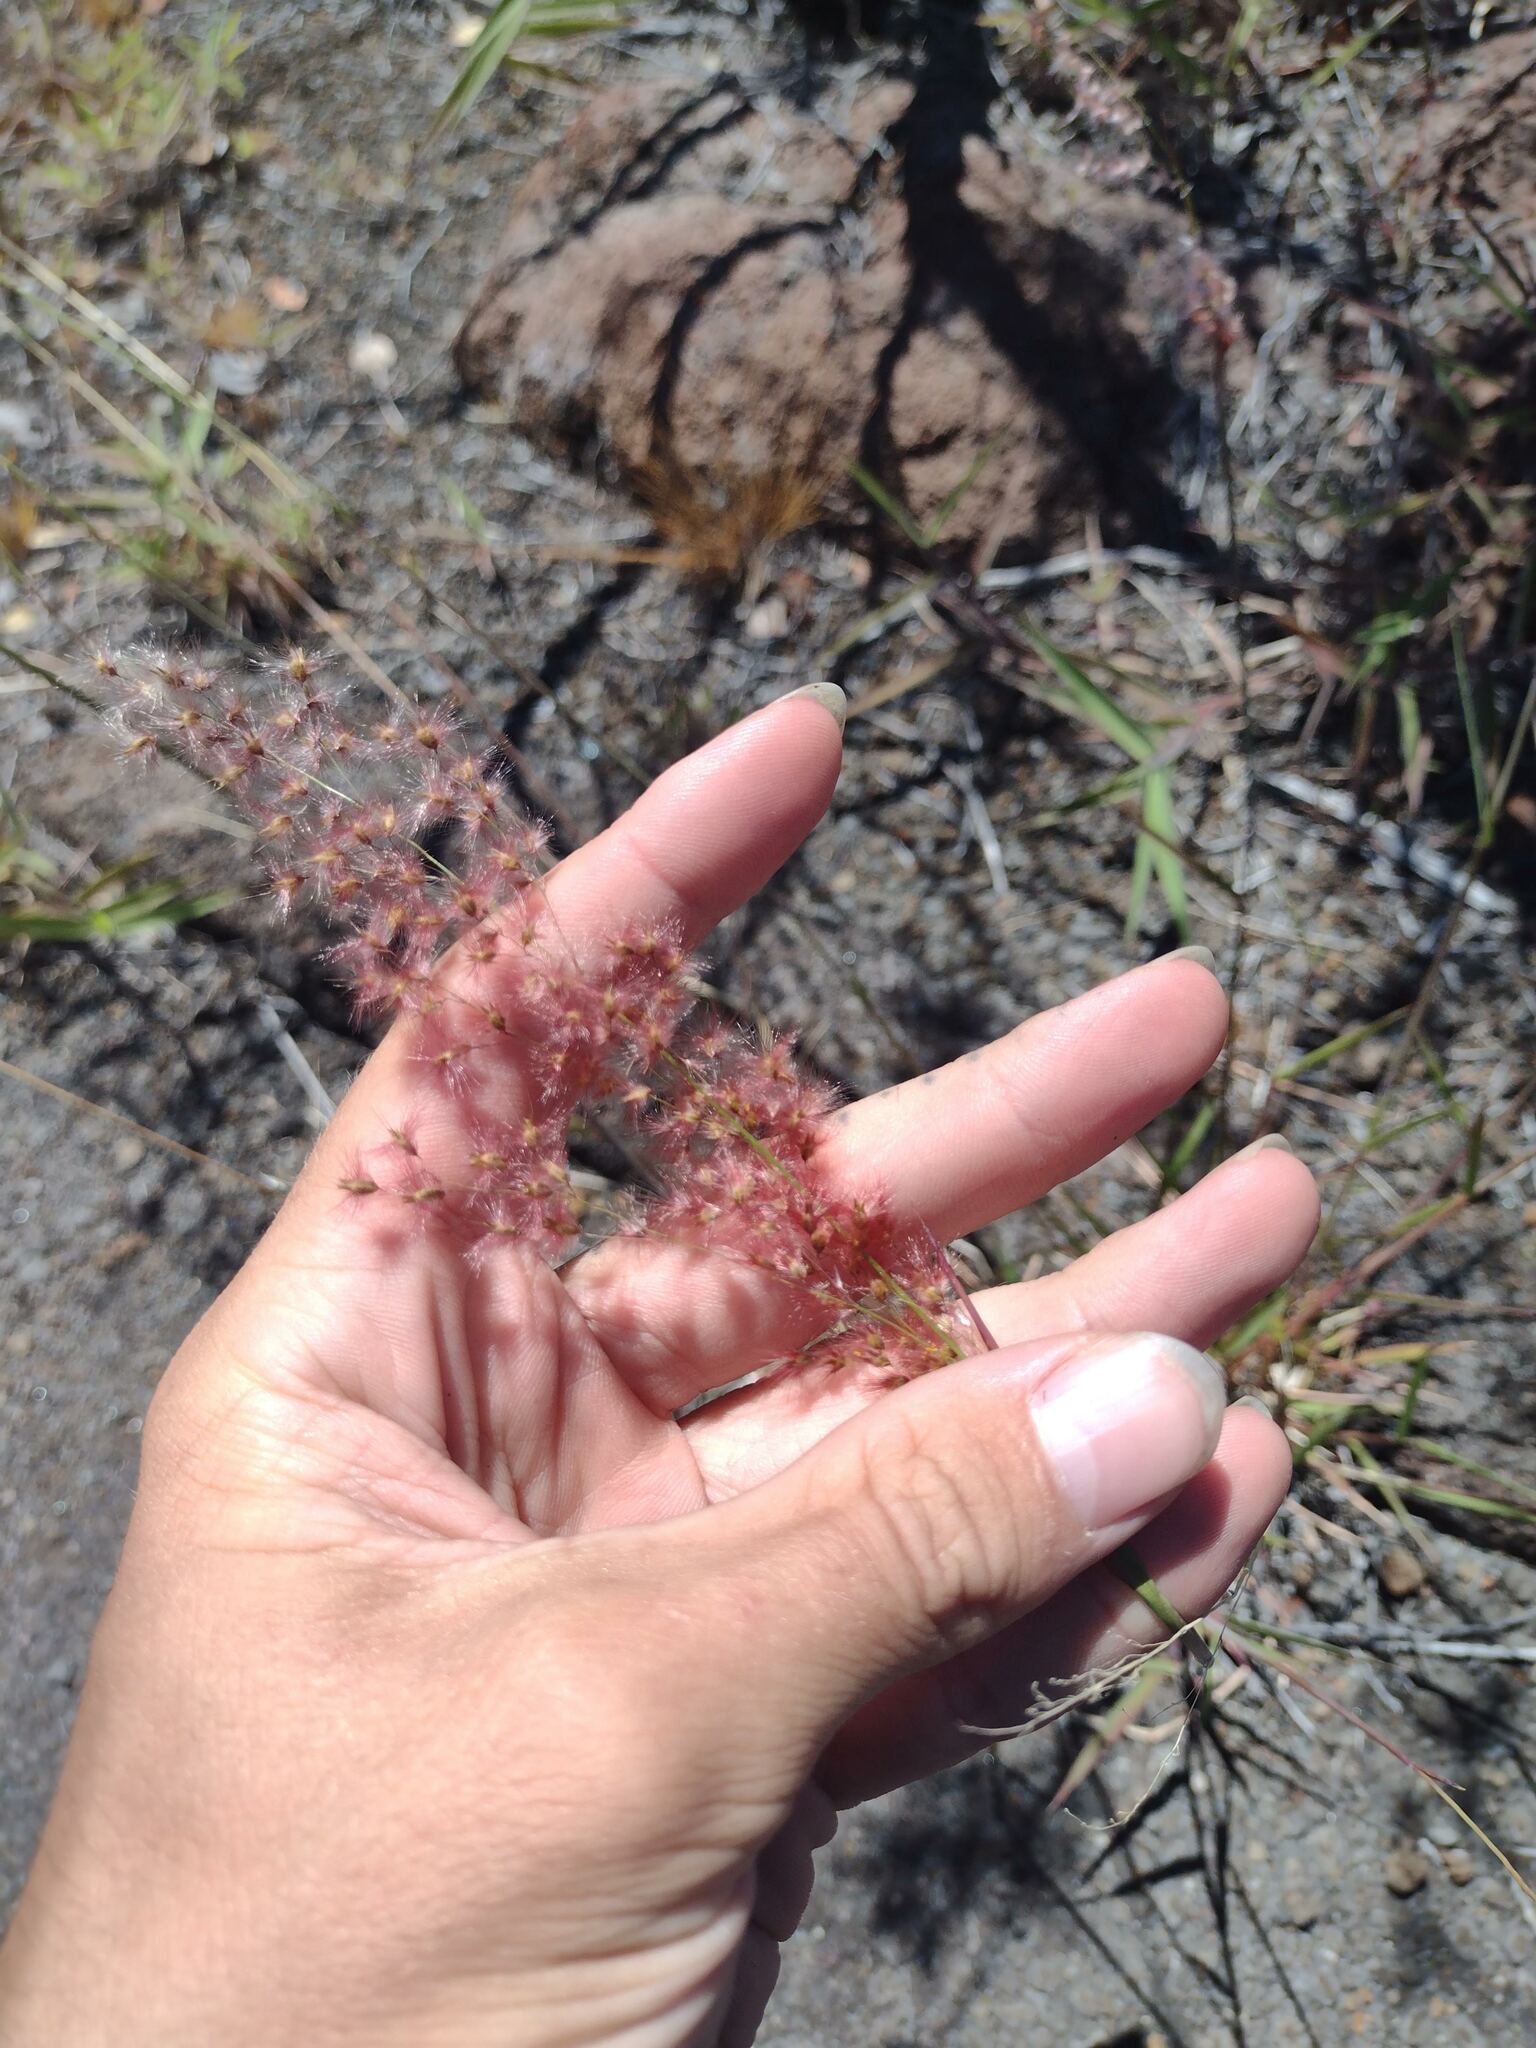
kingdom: Plantae
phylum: Tracheophyta
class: Liliopsida
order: Poales
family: Poaceae
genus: Melinis
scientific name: Melinis repens
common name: Rose natal grass
